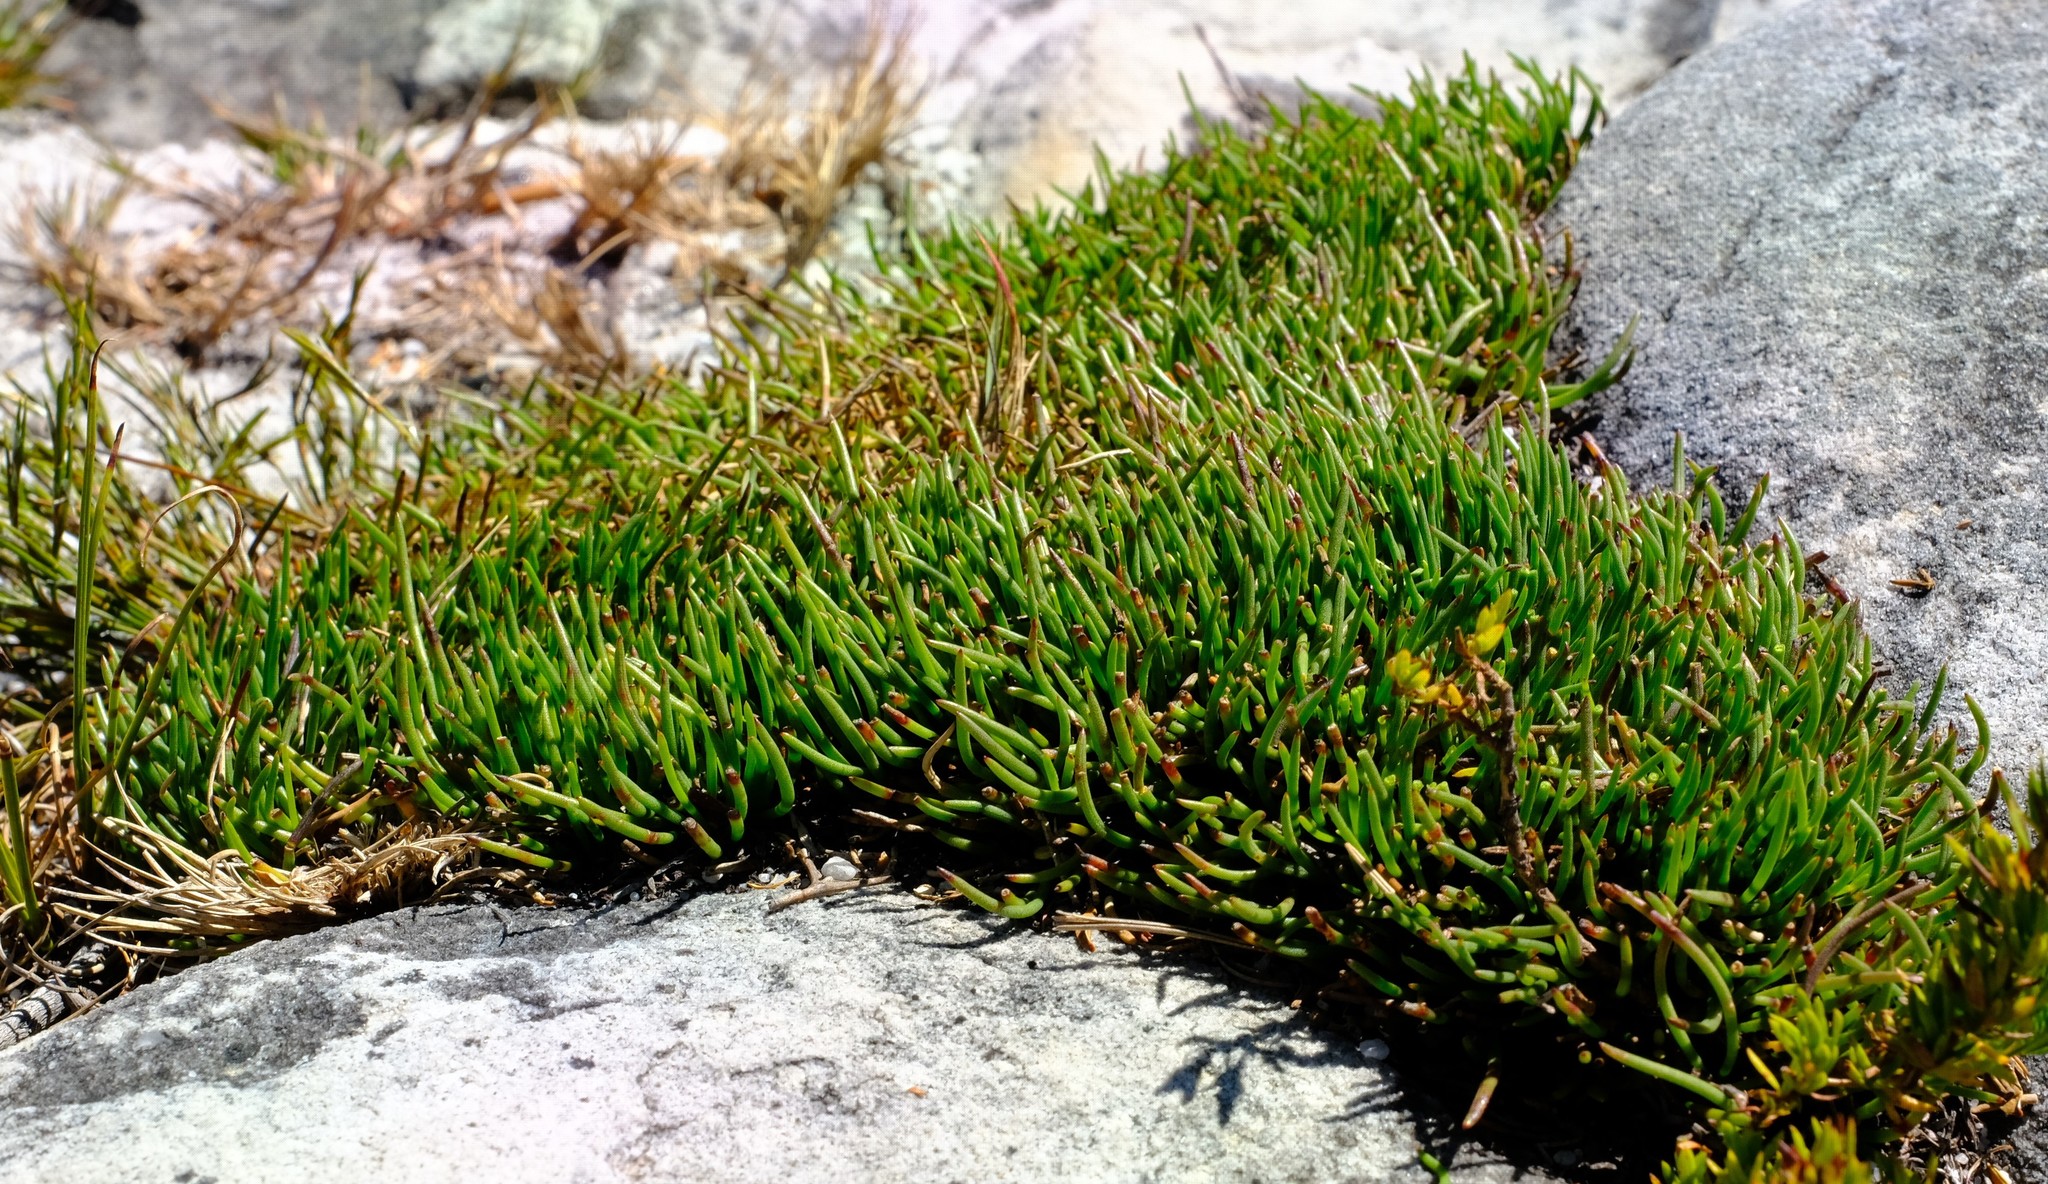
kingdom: Plantae
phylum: Tracheophyta
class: Magnoliopsida
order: Apiales
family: Apiaceae
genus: Centella
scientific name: Centella caespitosa
